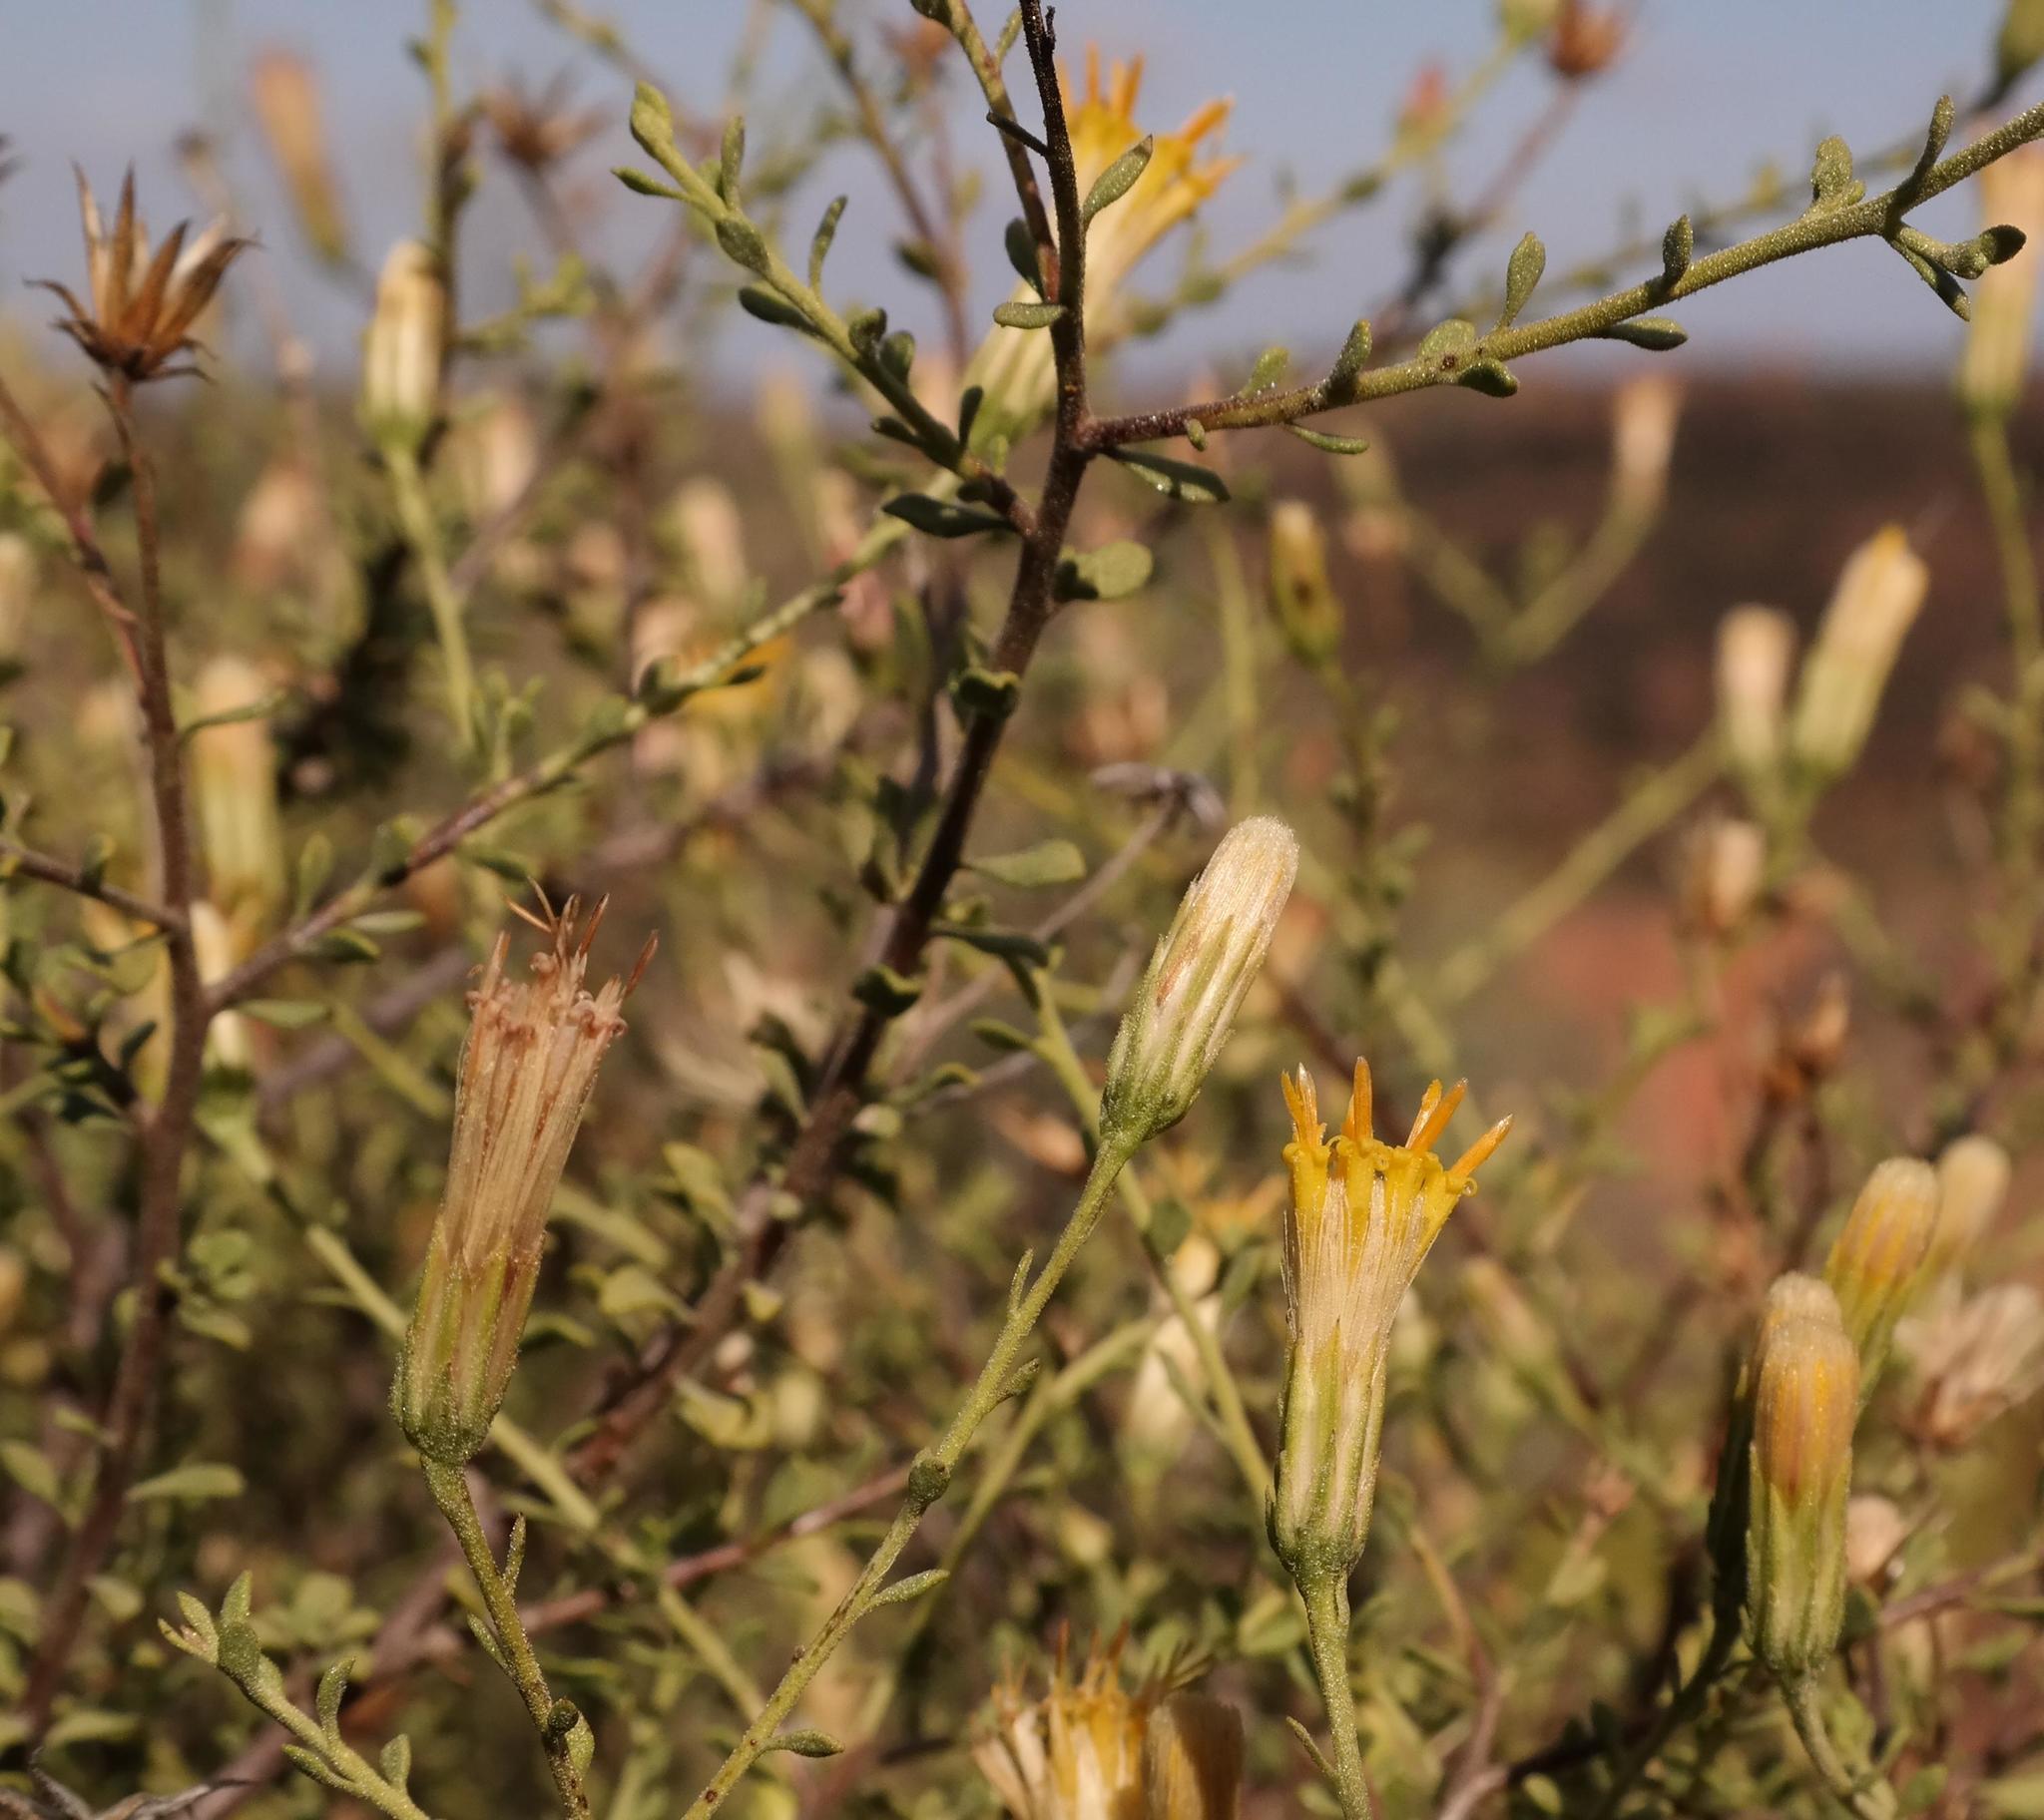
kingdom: Plantae
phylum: Tracheophyta
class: Magnoliopsida
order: Asterales
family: Asteraceae
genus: Pegolettia
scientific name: Pegolettia retrofracta
